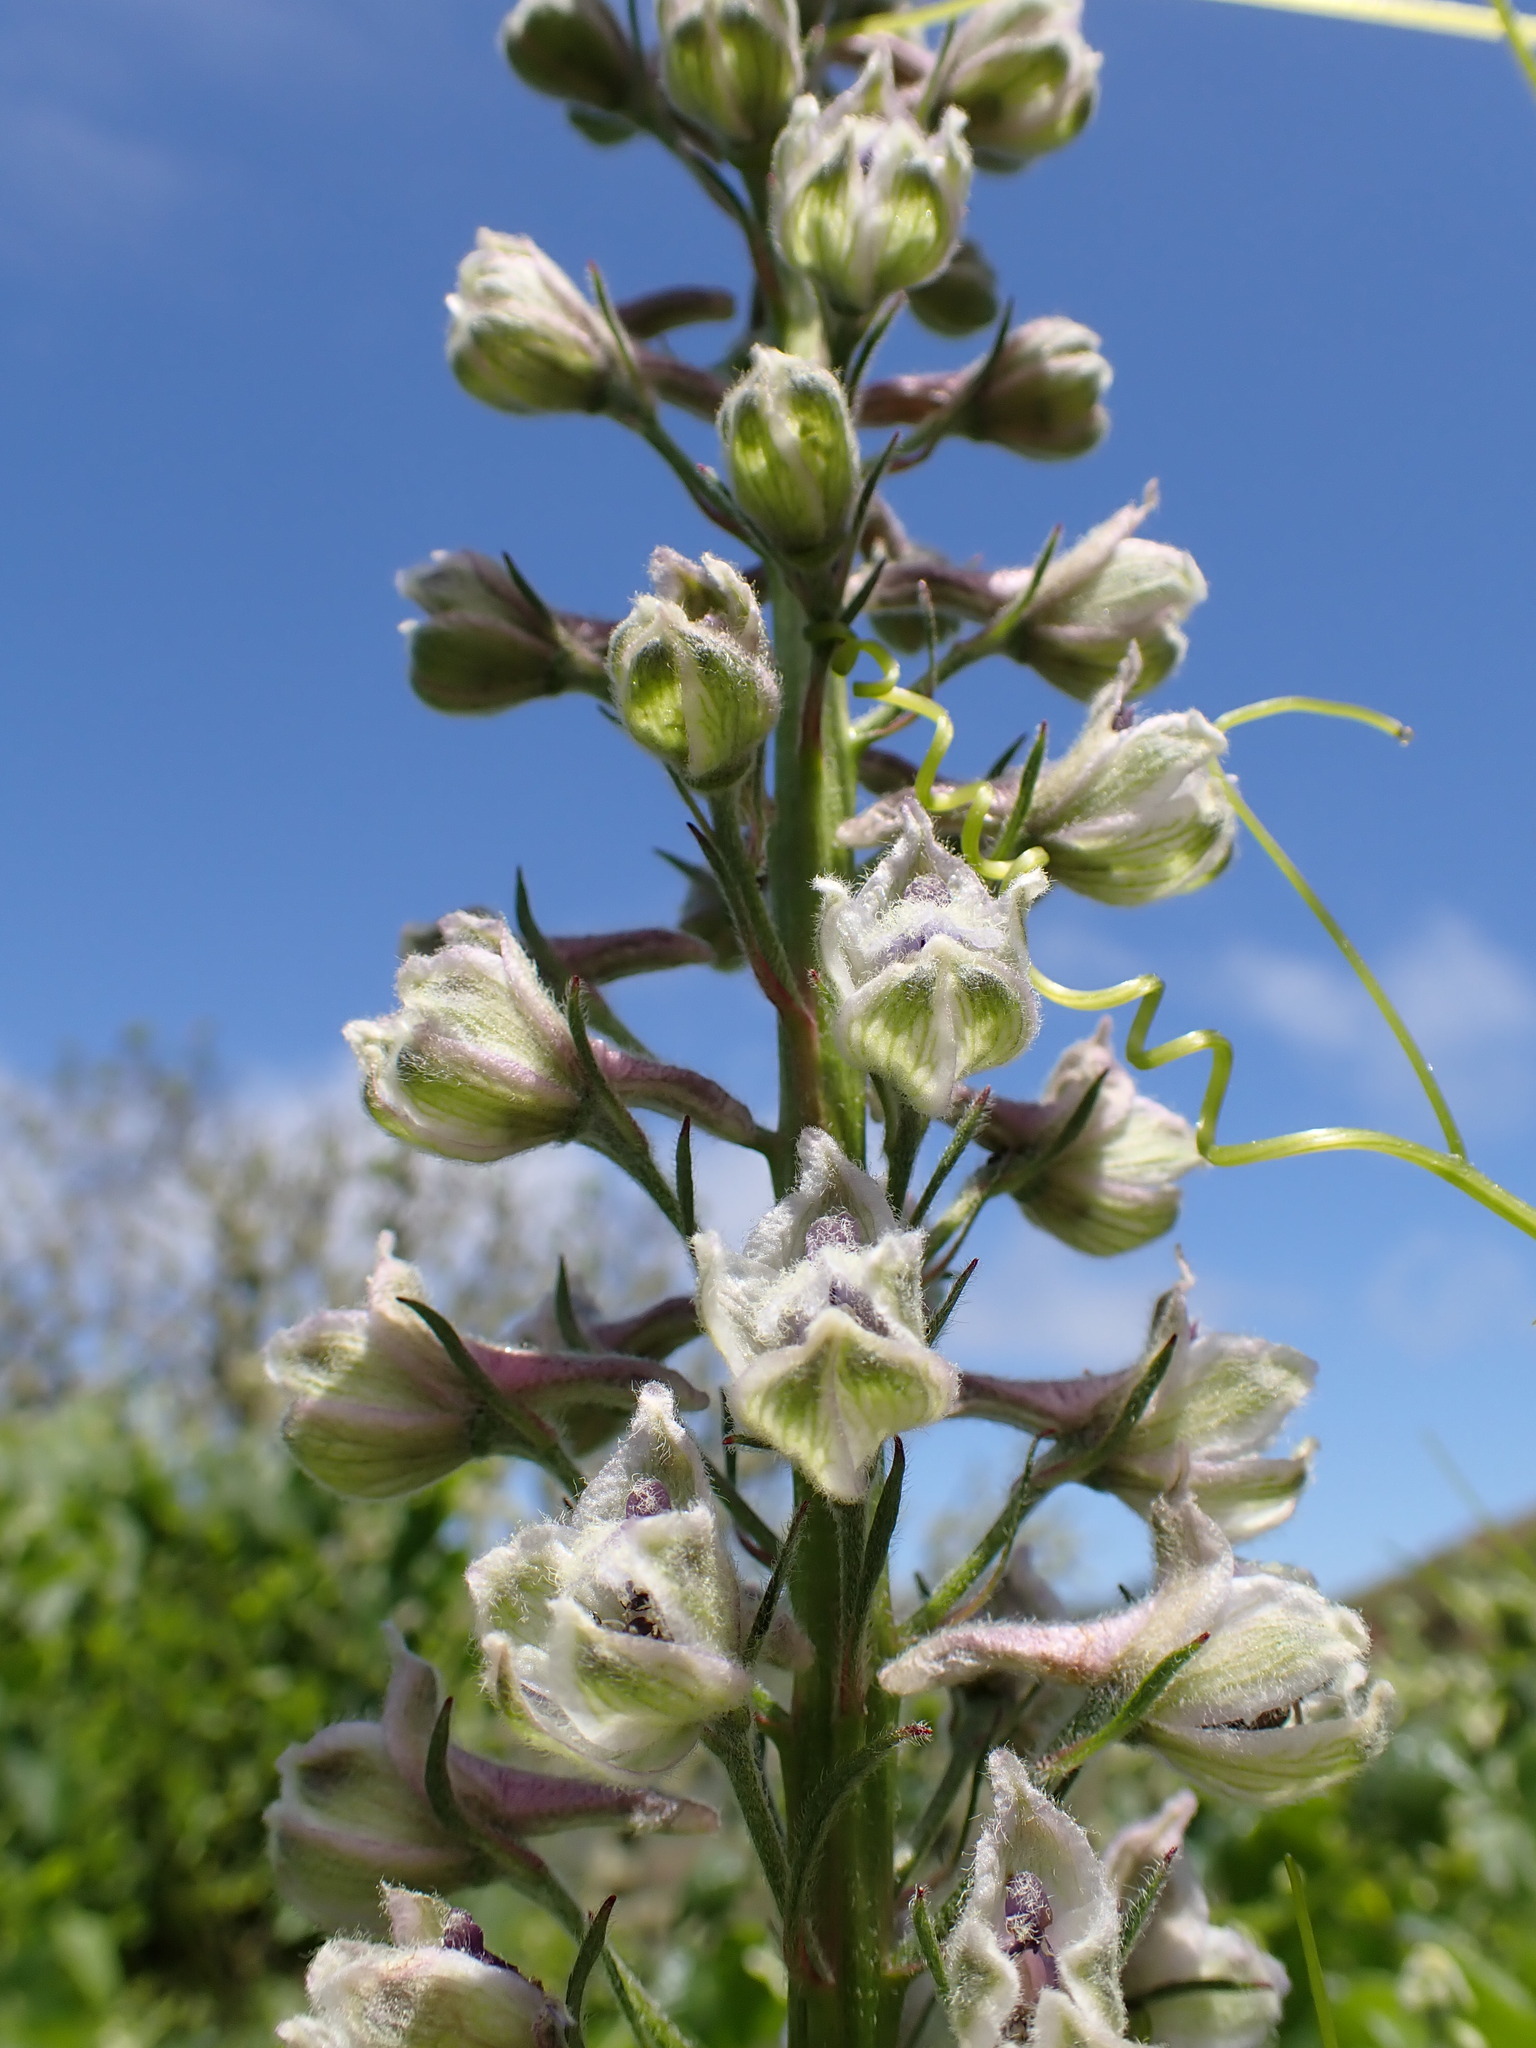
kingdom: Plantae
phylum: Tracheophyta
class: Magnoliopsida
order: Ranunculales
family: Ranunculaceae
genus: Delphinium
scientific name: Delphinium californicum
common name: California larkspur
